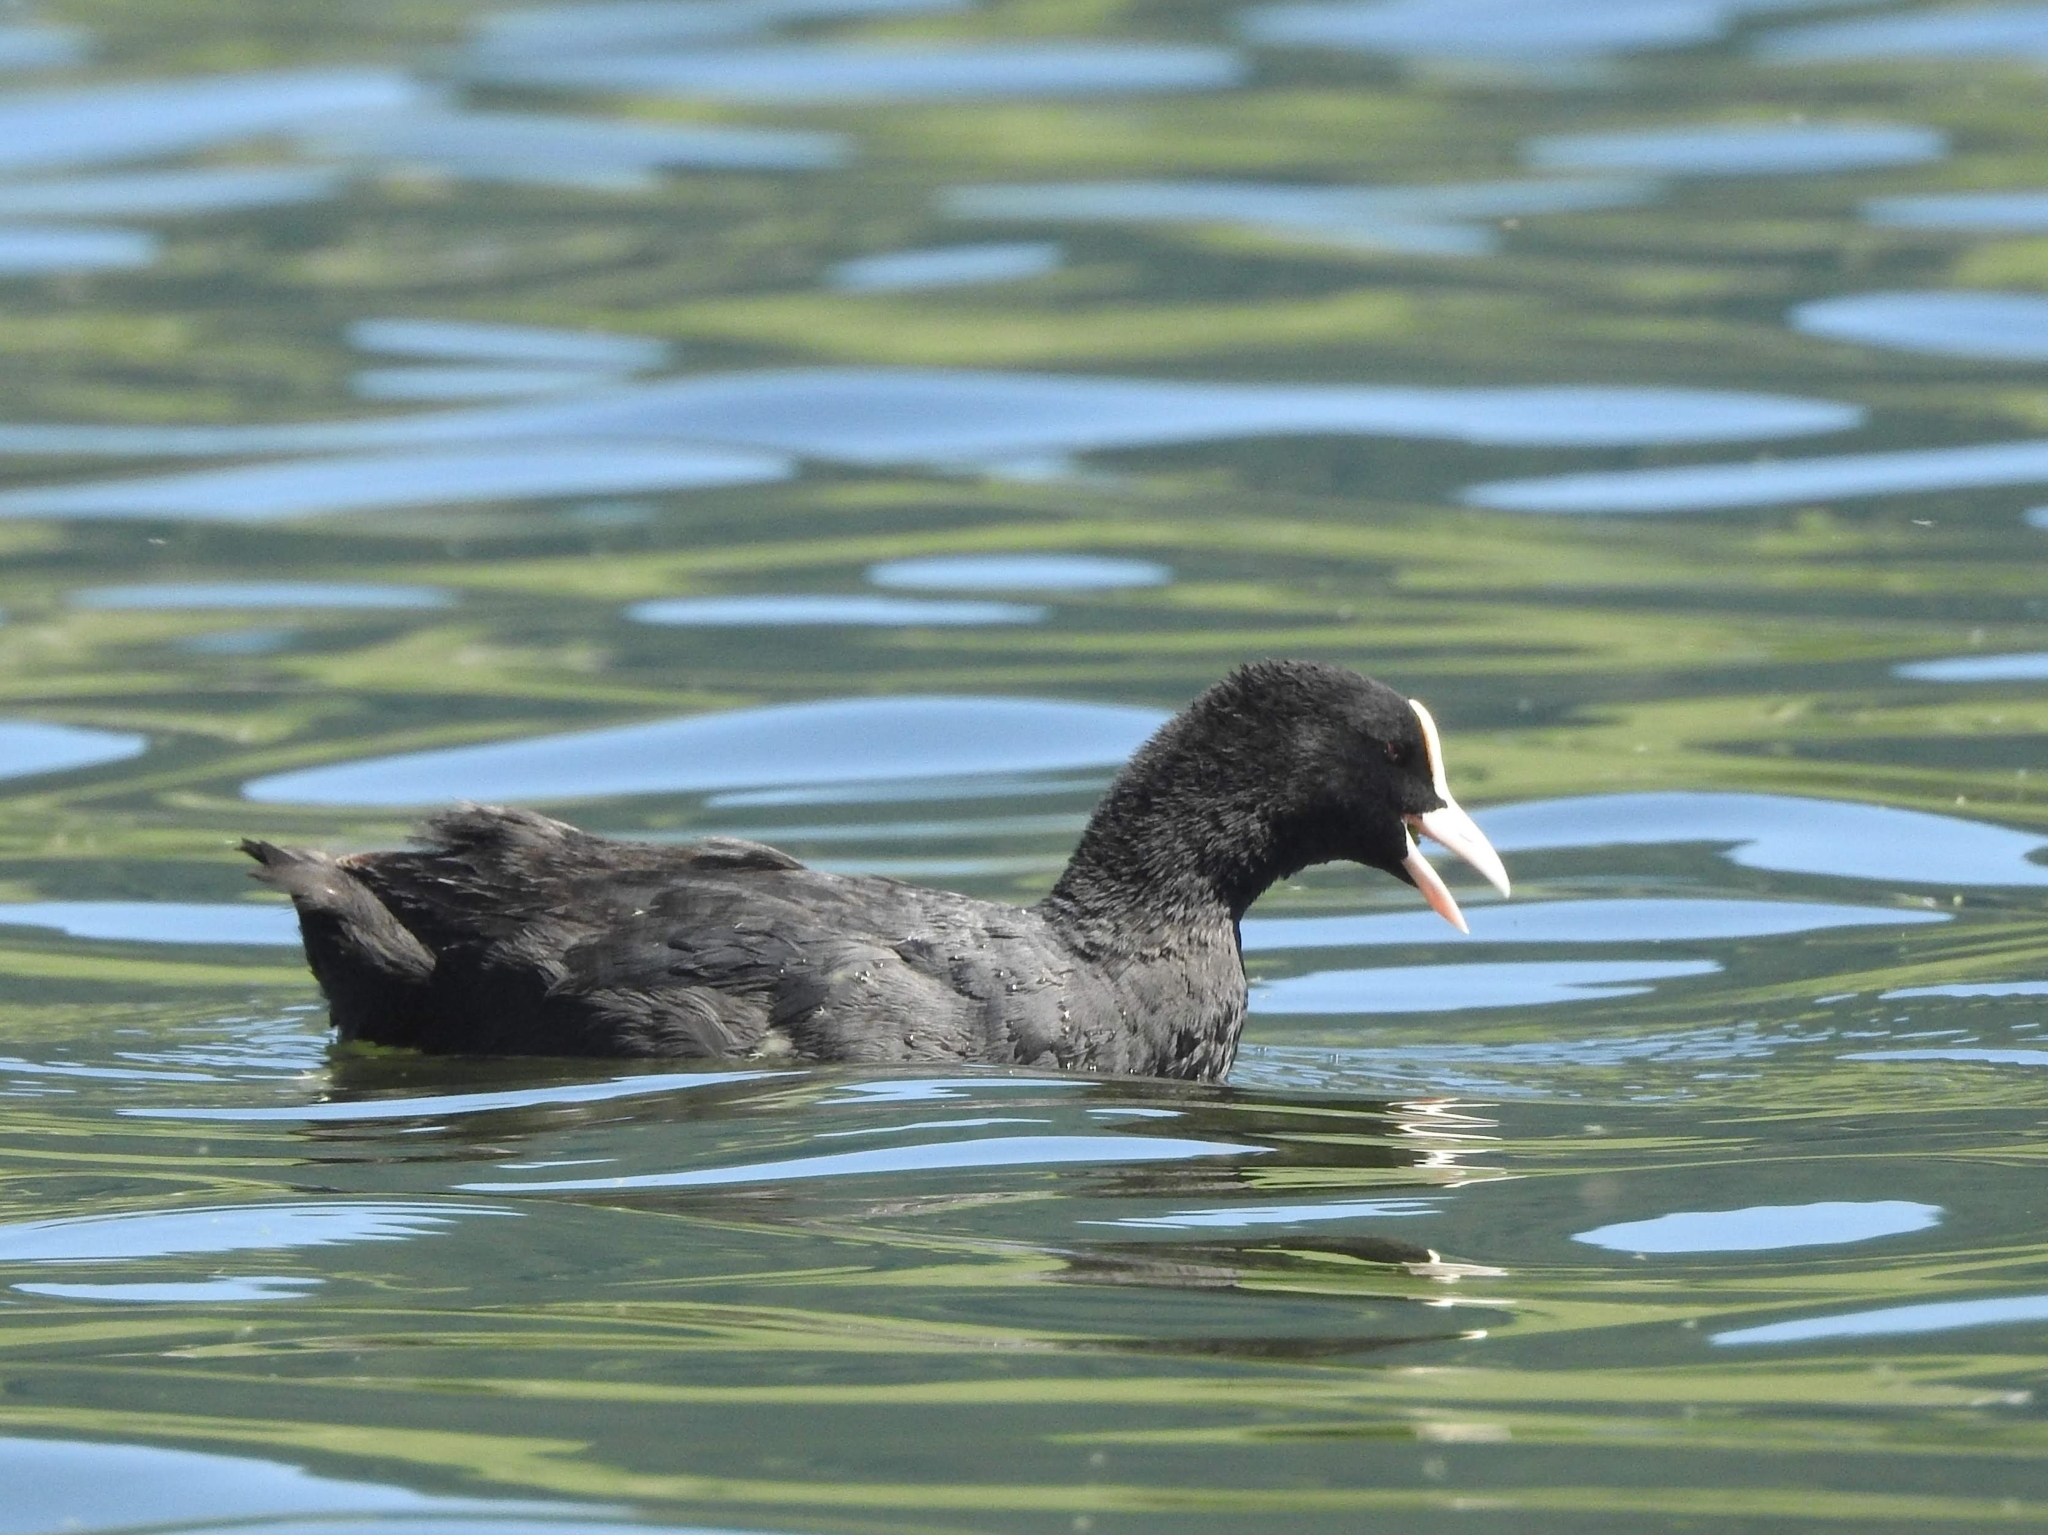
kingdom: Animalia
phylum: Chordata
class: Aves
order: Gruiformes
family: Rallidae
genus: Fulica
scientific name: Fulica atra
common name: Eurasian coot
